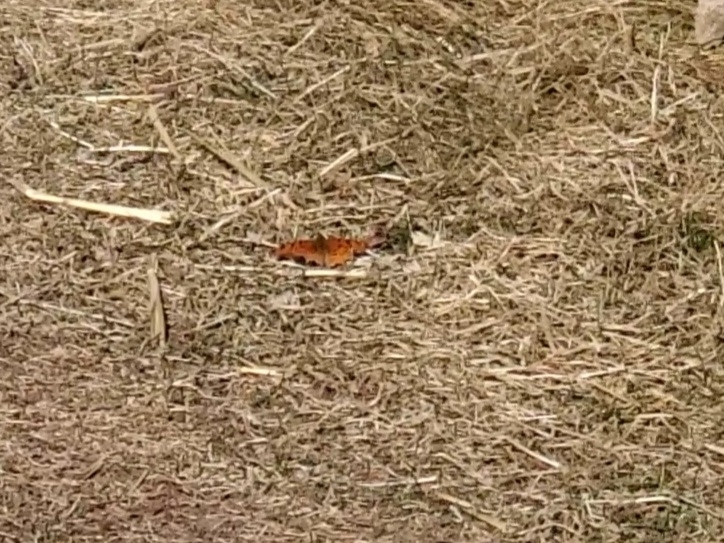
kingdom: Animalia
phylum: Arthropoda
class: Insecta
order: Lepidoptera
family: Nymphalidae
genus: Polygonia
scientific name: Polygonia gracilis
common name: Hoary comma
